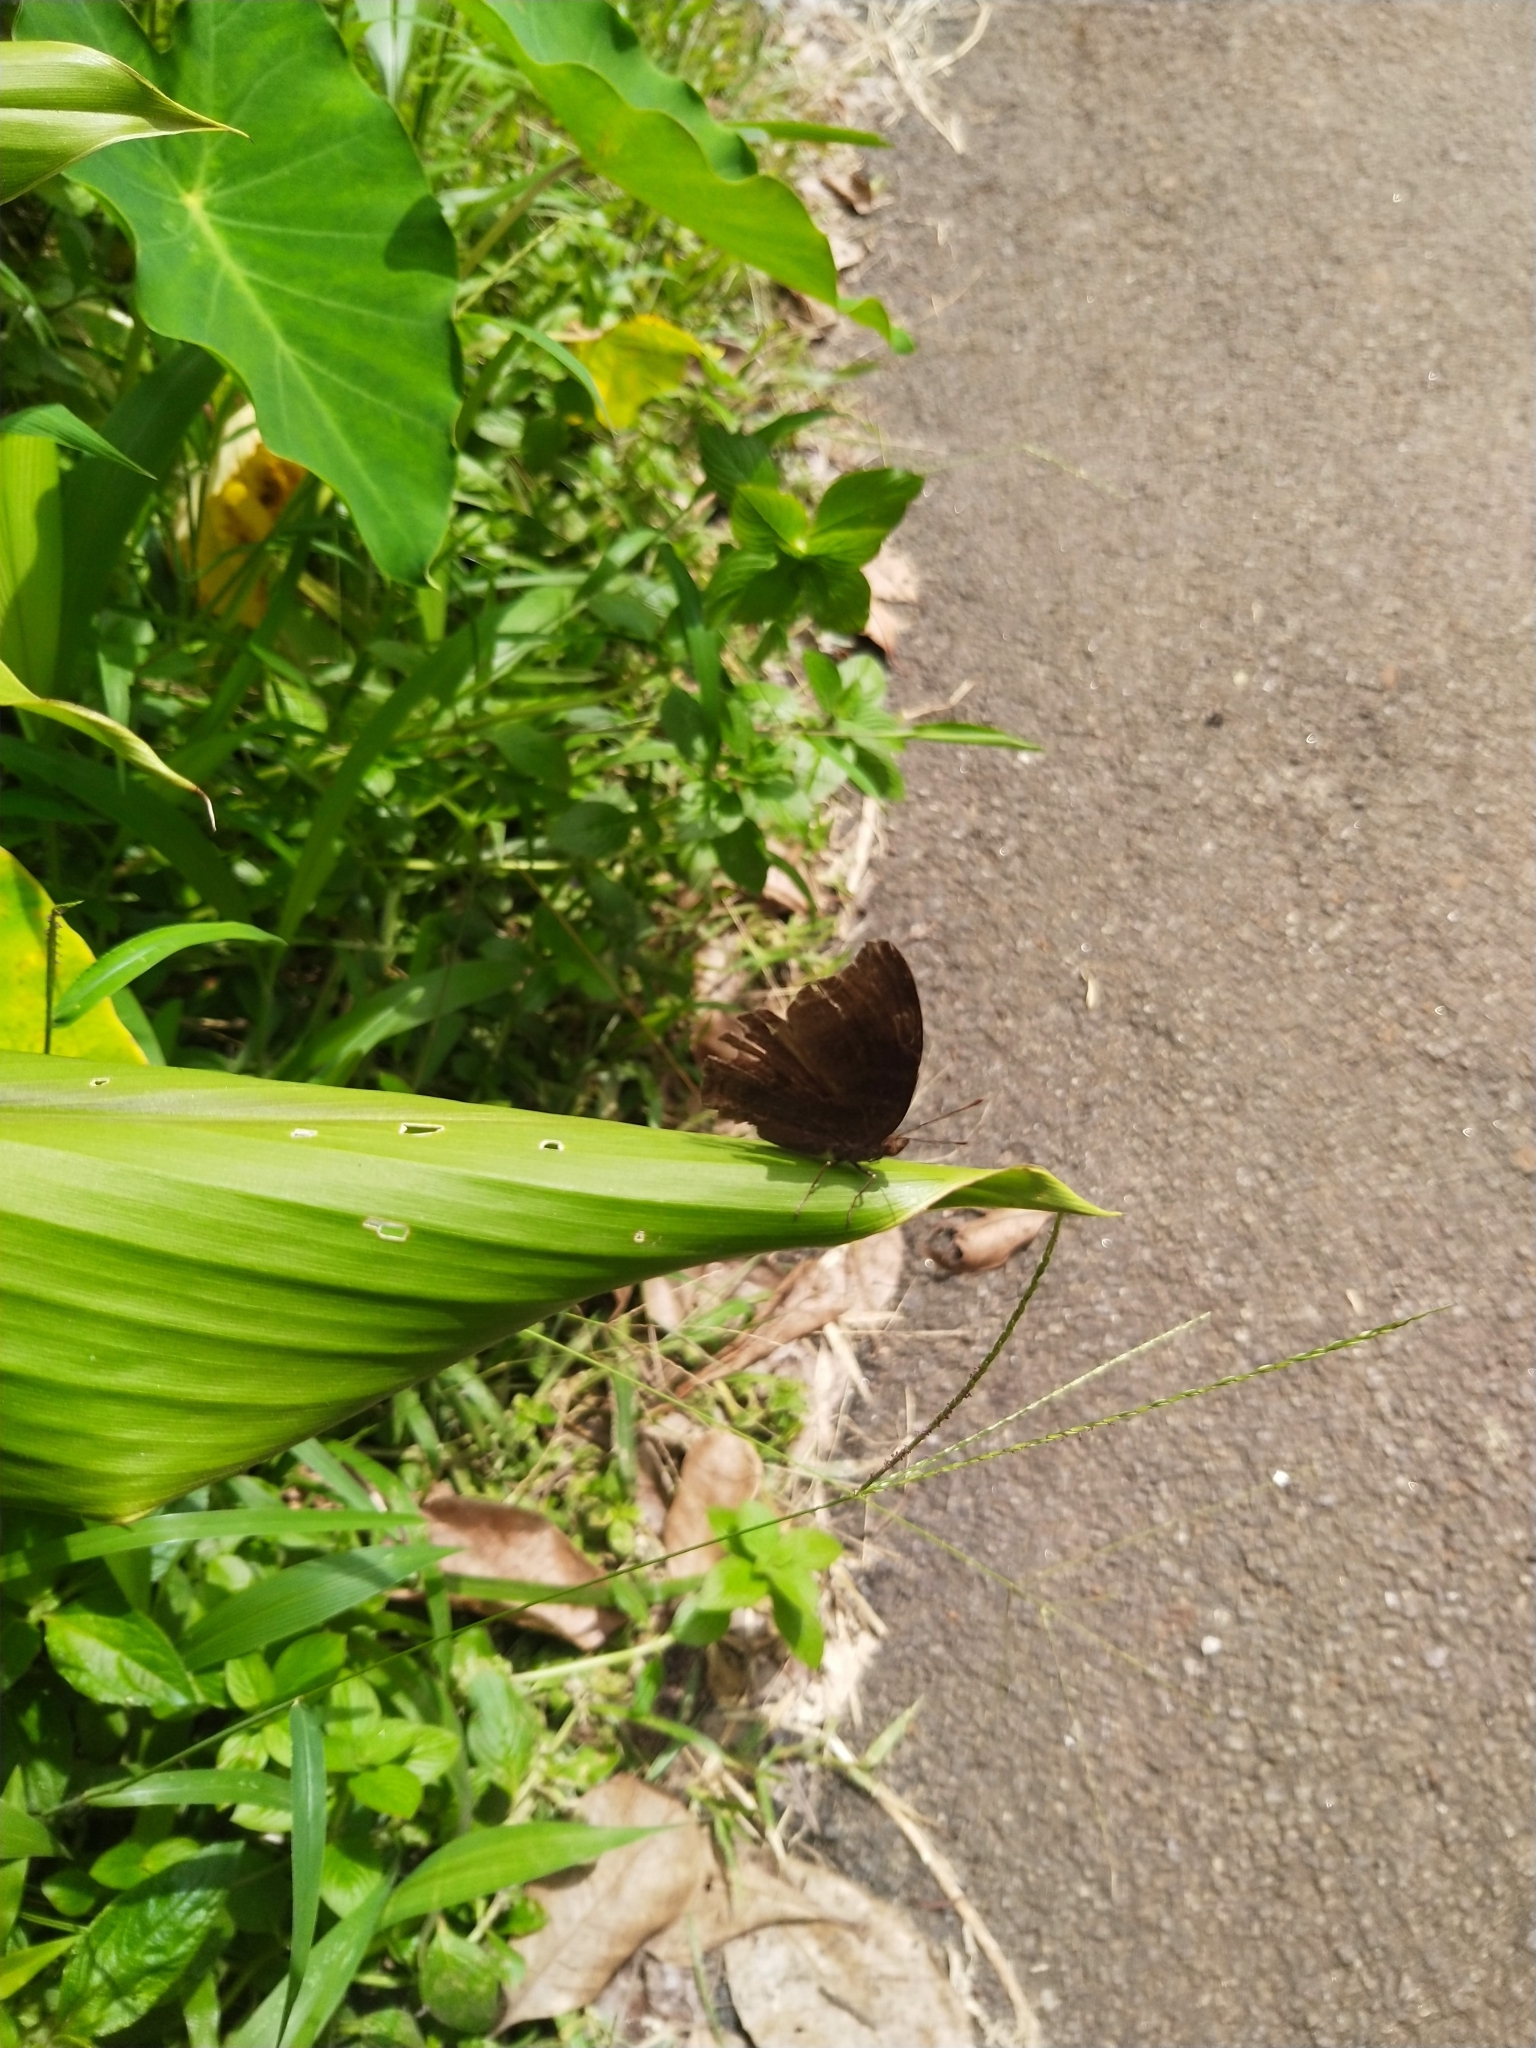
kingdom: Animalia
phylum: Arthropoda
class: Insecta
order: Lepidoptera
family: Nymphalidae
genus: Junonia
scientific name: Junonia iphita
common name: Chocolate pansy
